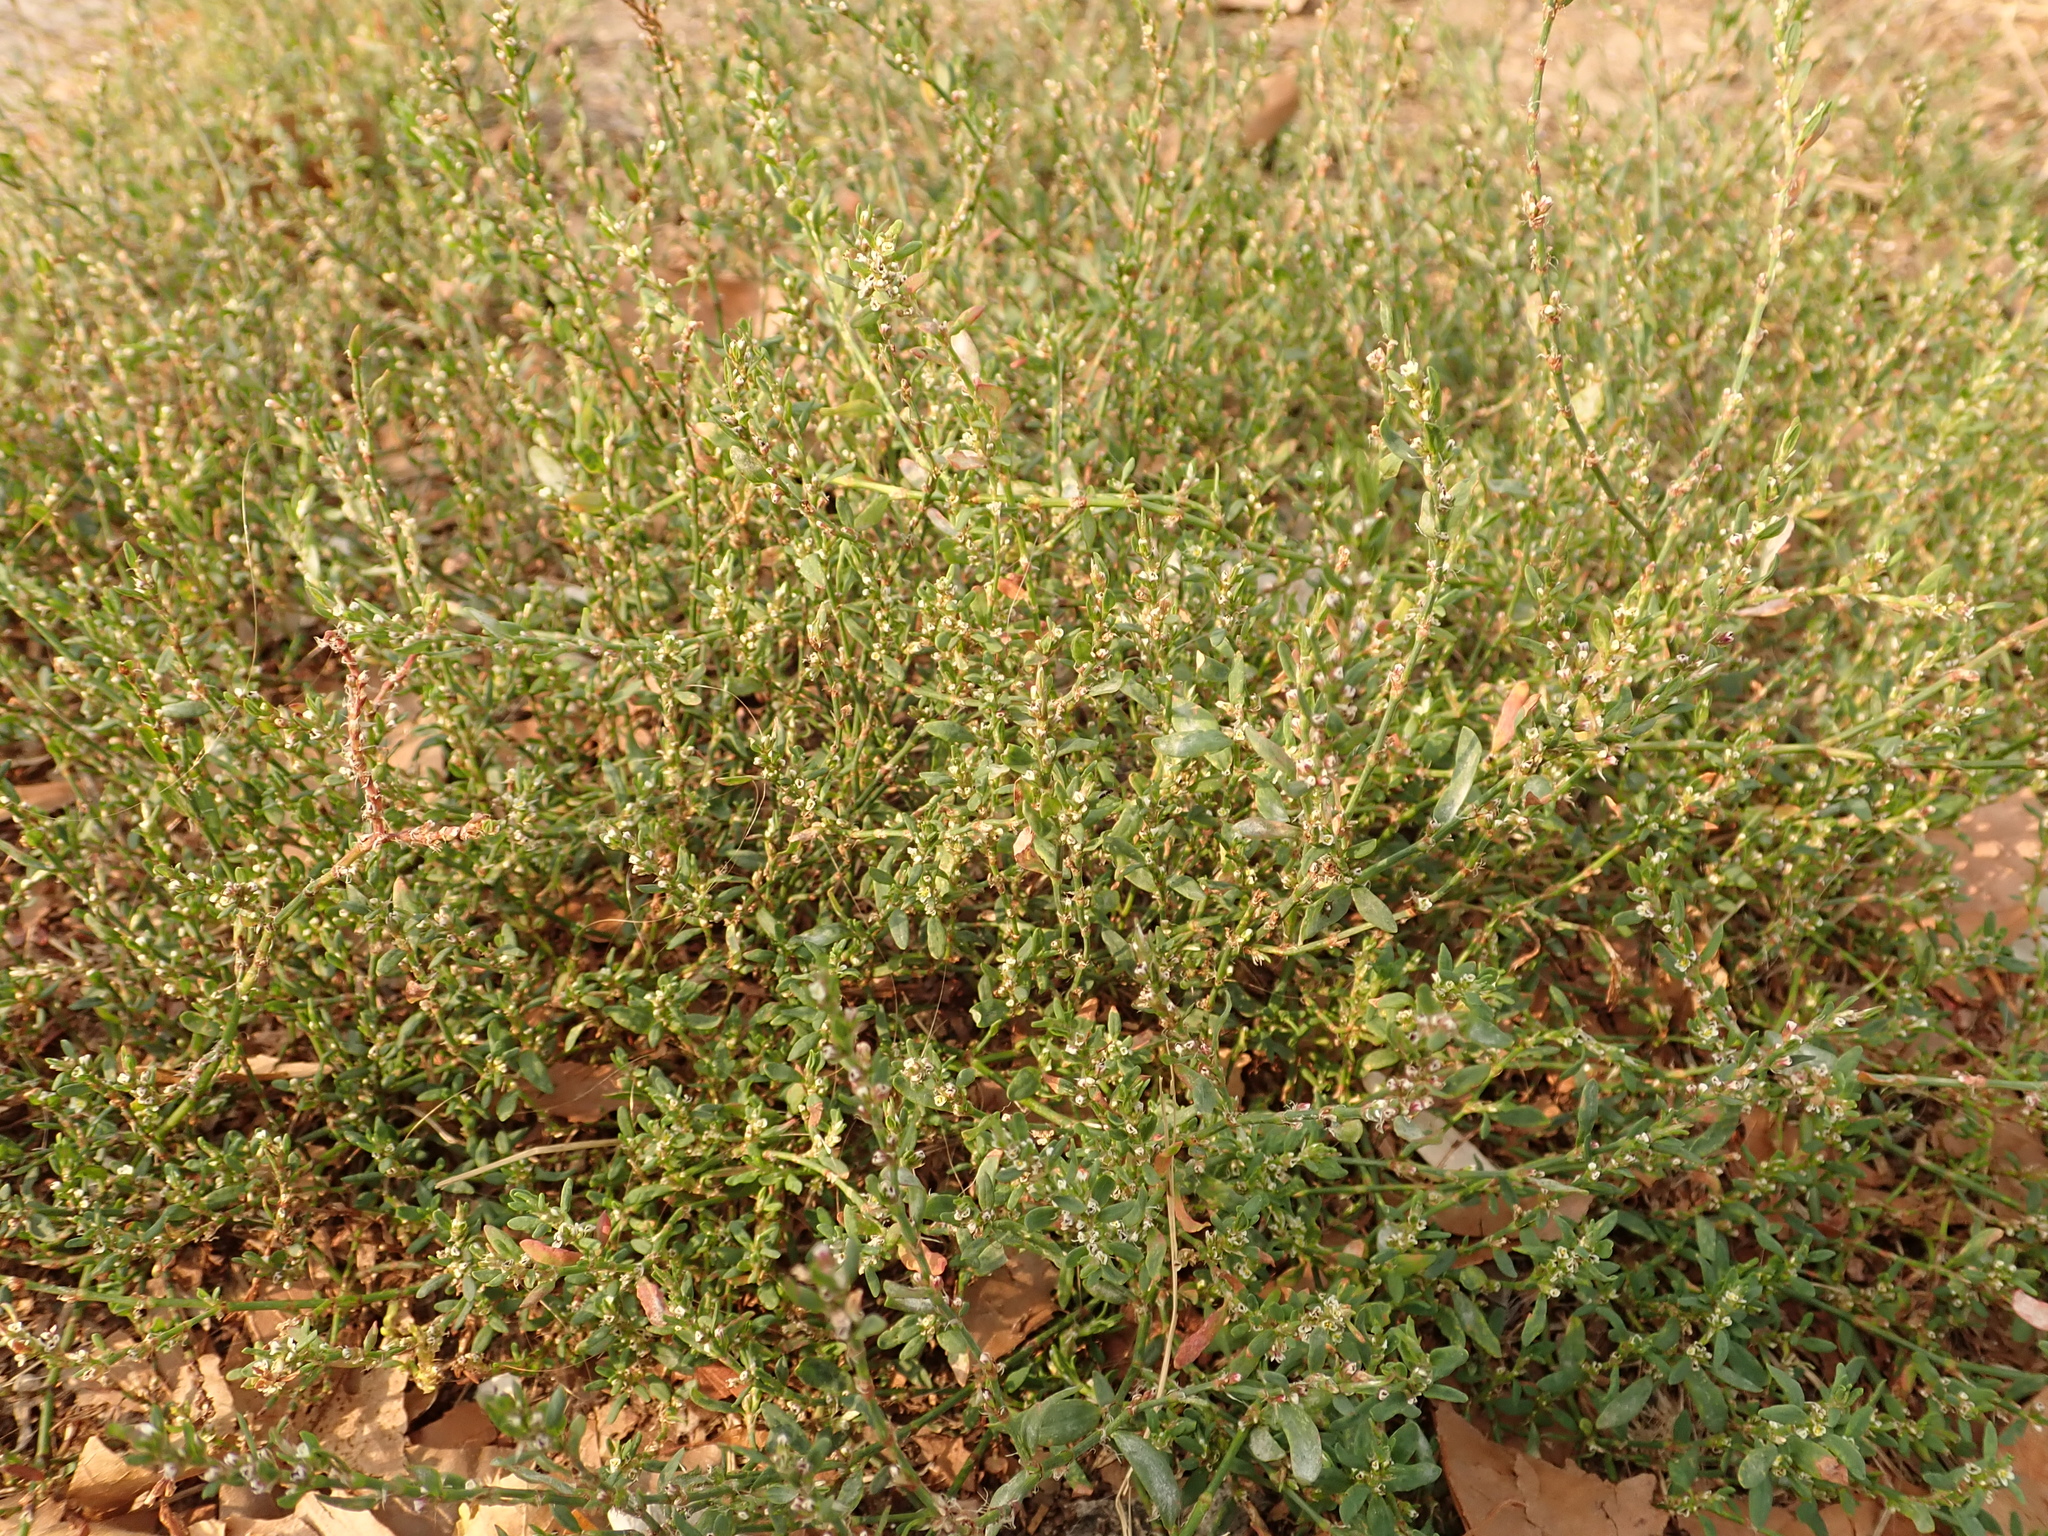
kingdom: Plantae
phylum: Tracheophyta
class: Magnoliopsida
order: Caryophyllales
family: Polygonaceae
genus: Polygonum
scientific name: Polygonum aviculare
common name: Prostrate knotweed
